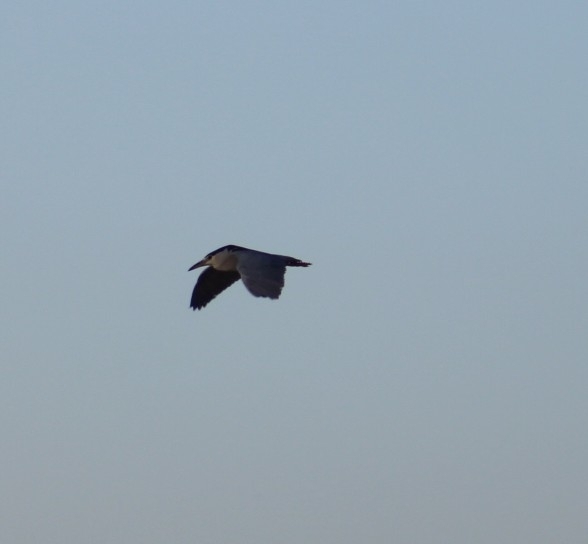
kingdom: Animalia
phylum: Chordata
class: Aves
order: Pelecaniformes
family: Ardeidae
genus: Nycticorax
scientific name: Nycticorax nycticorax
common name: Black-crowned night heron
